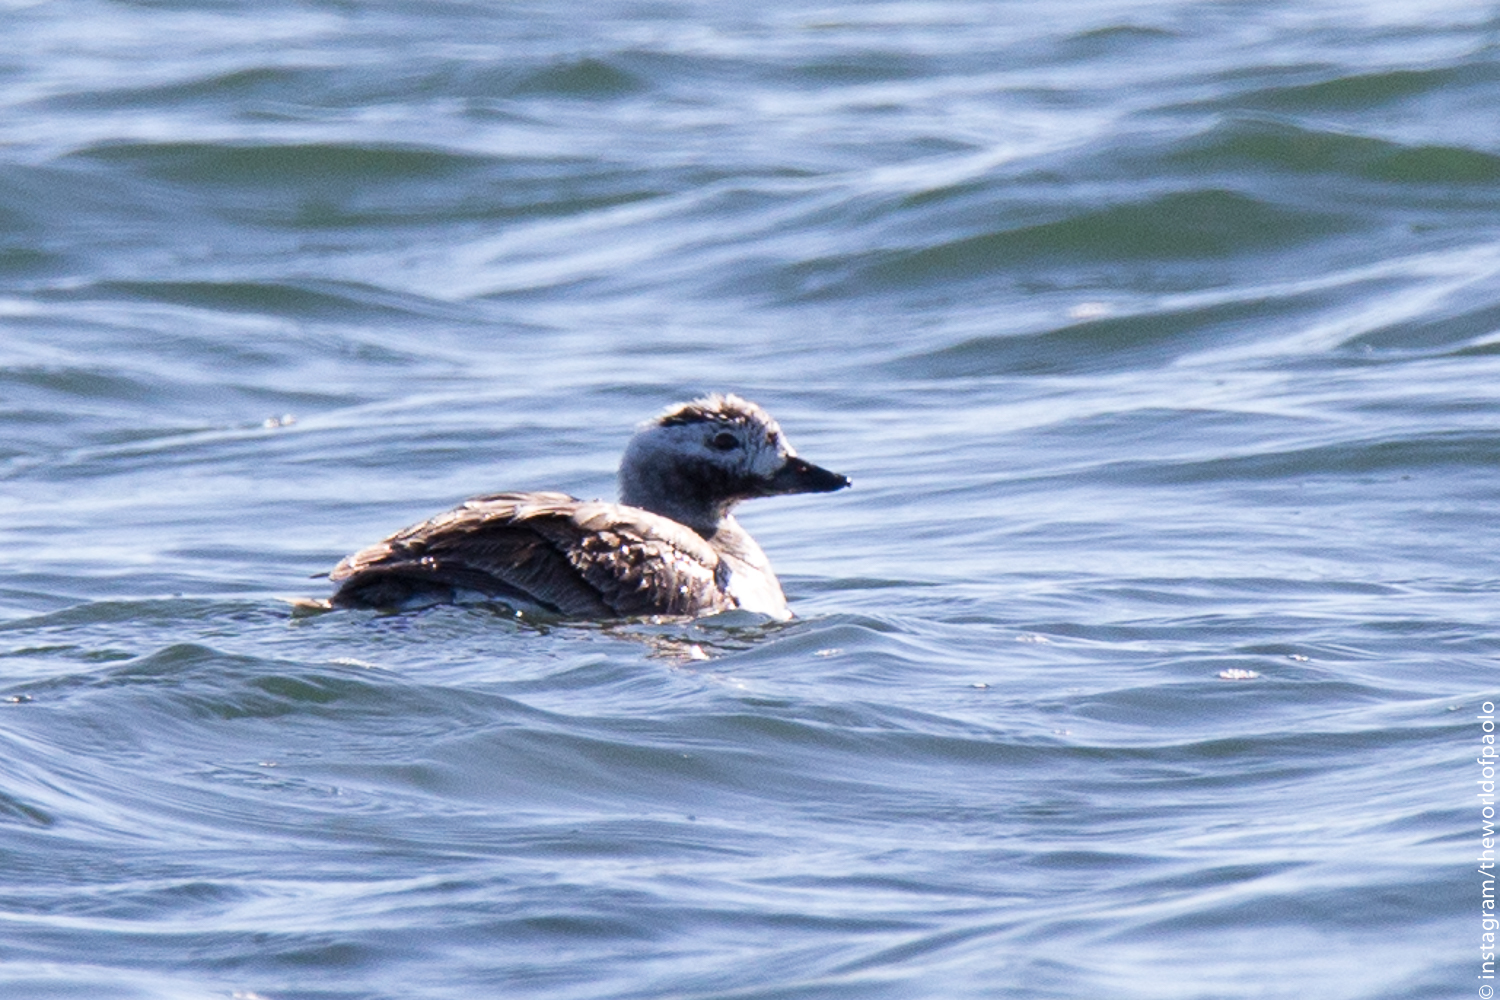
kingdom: Animalia
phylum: Chordata
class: Aves
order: Anseriformes
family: Anatidae
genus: Clangula
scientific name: Clangula hyemalis
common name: Long-tailed duck
